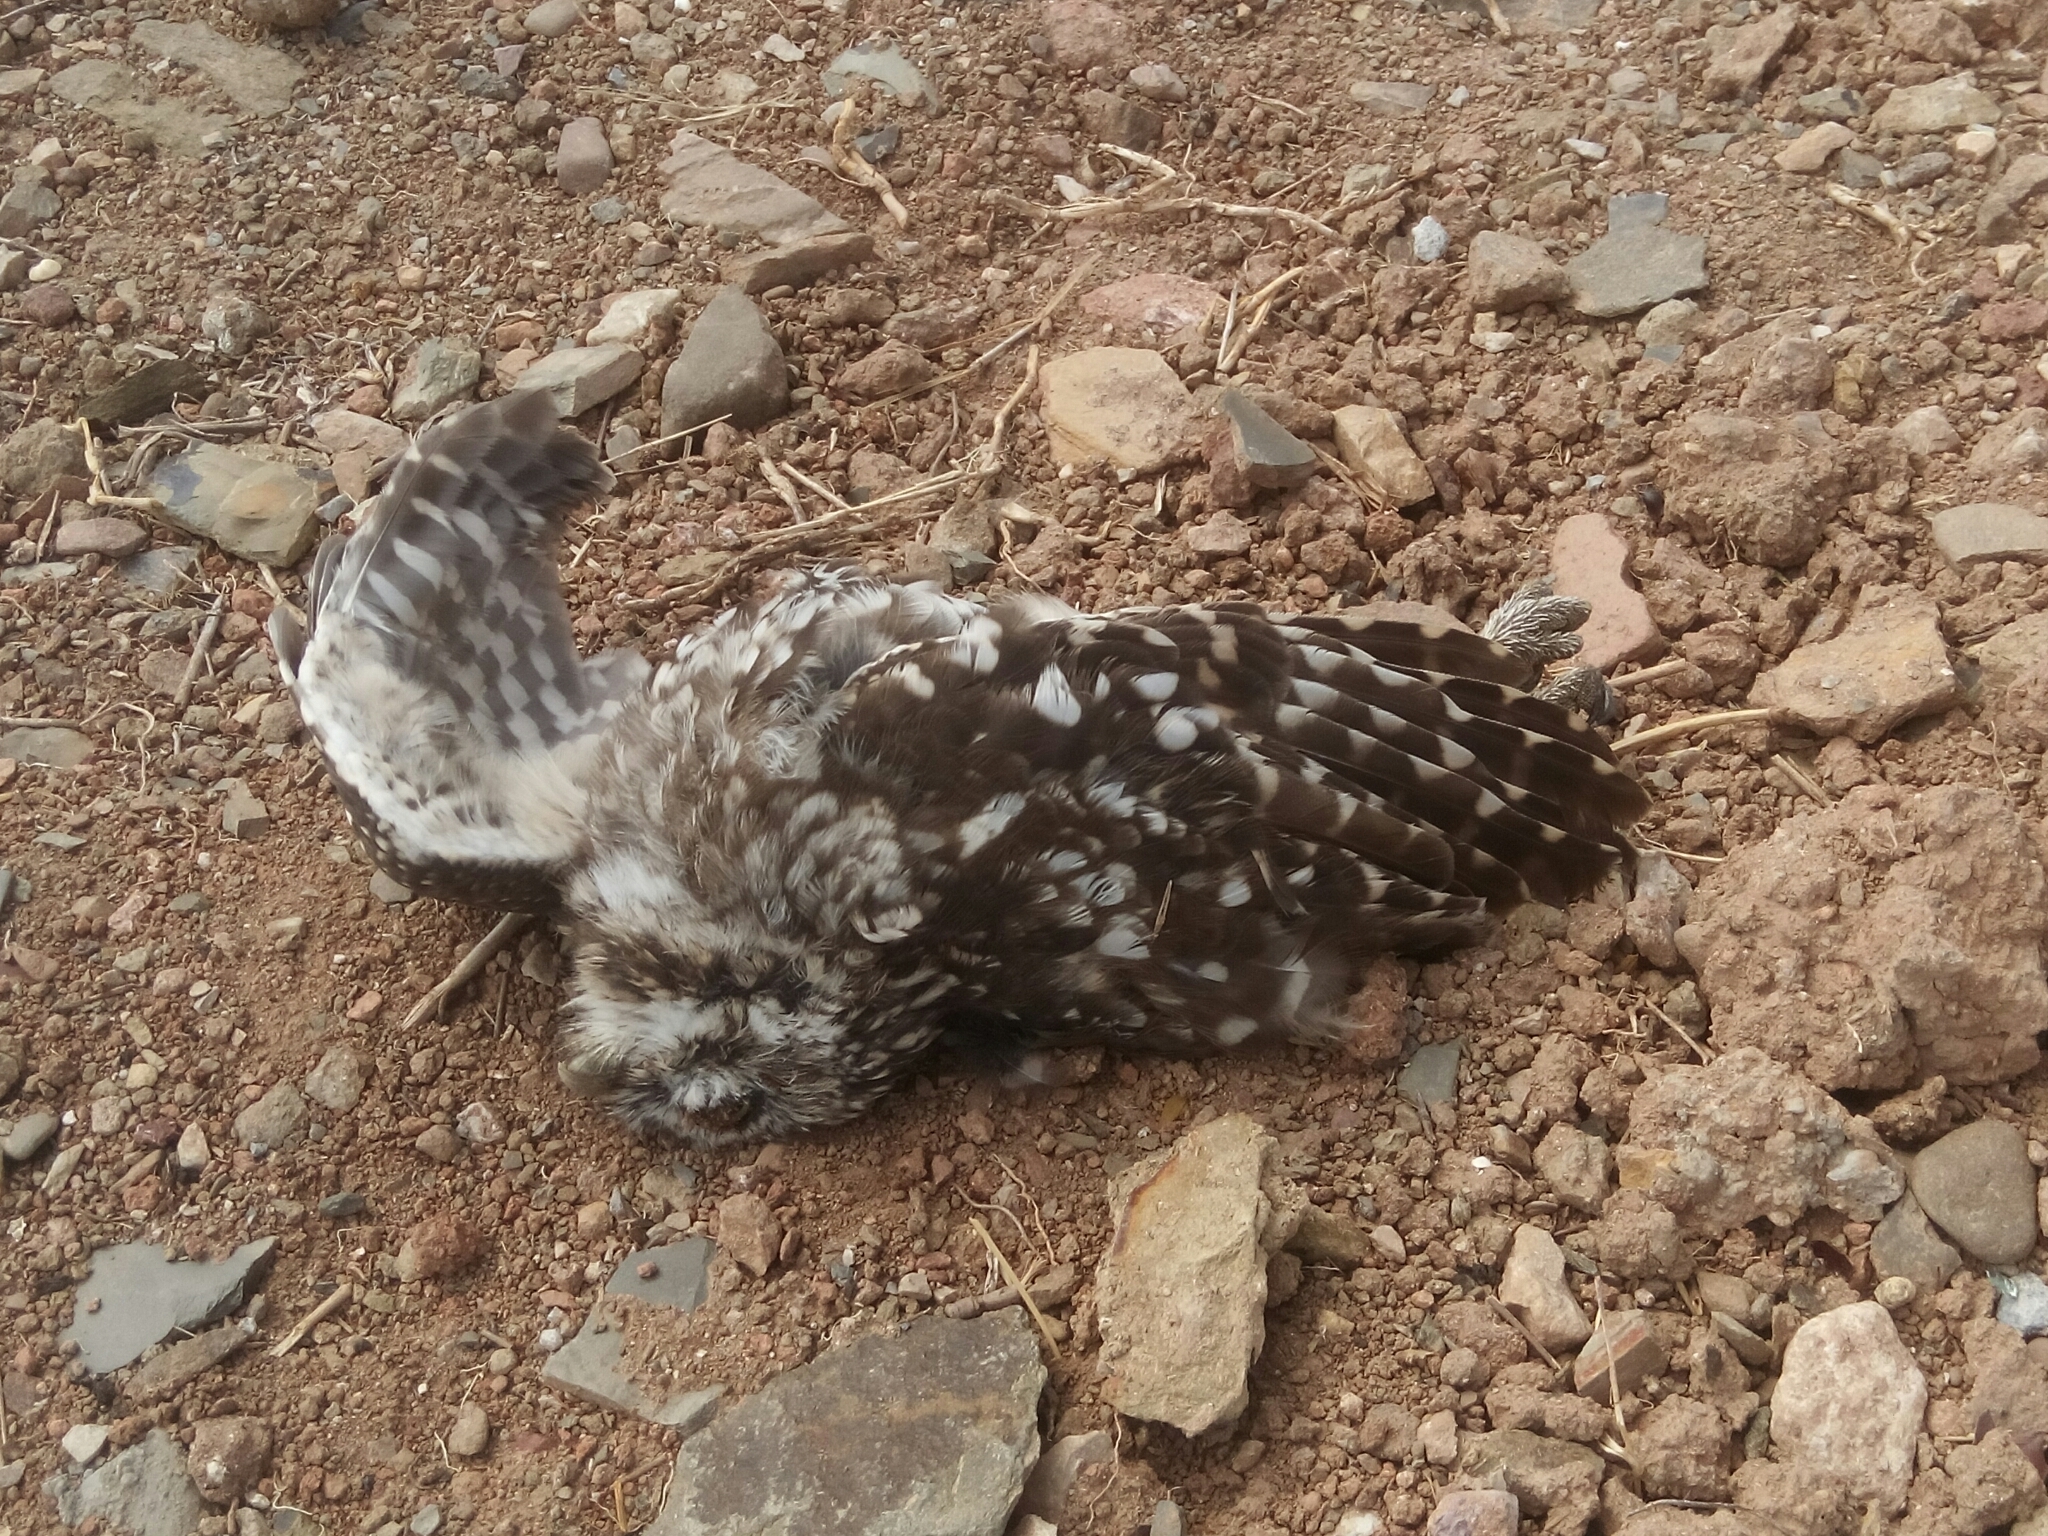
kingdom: Animalia
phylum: Chordata
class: Aves
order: Strigiformes
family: Strigidae
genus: Athene
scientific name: Athene noctua
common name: Little owl
